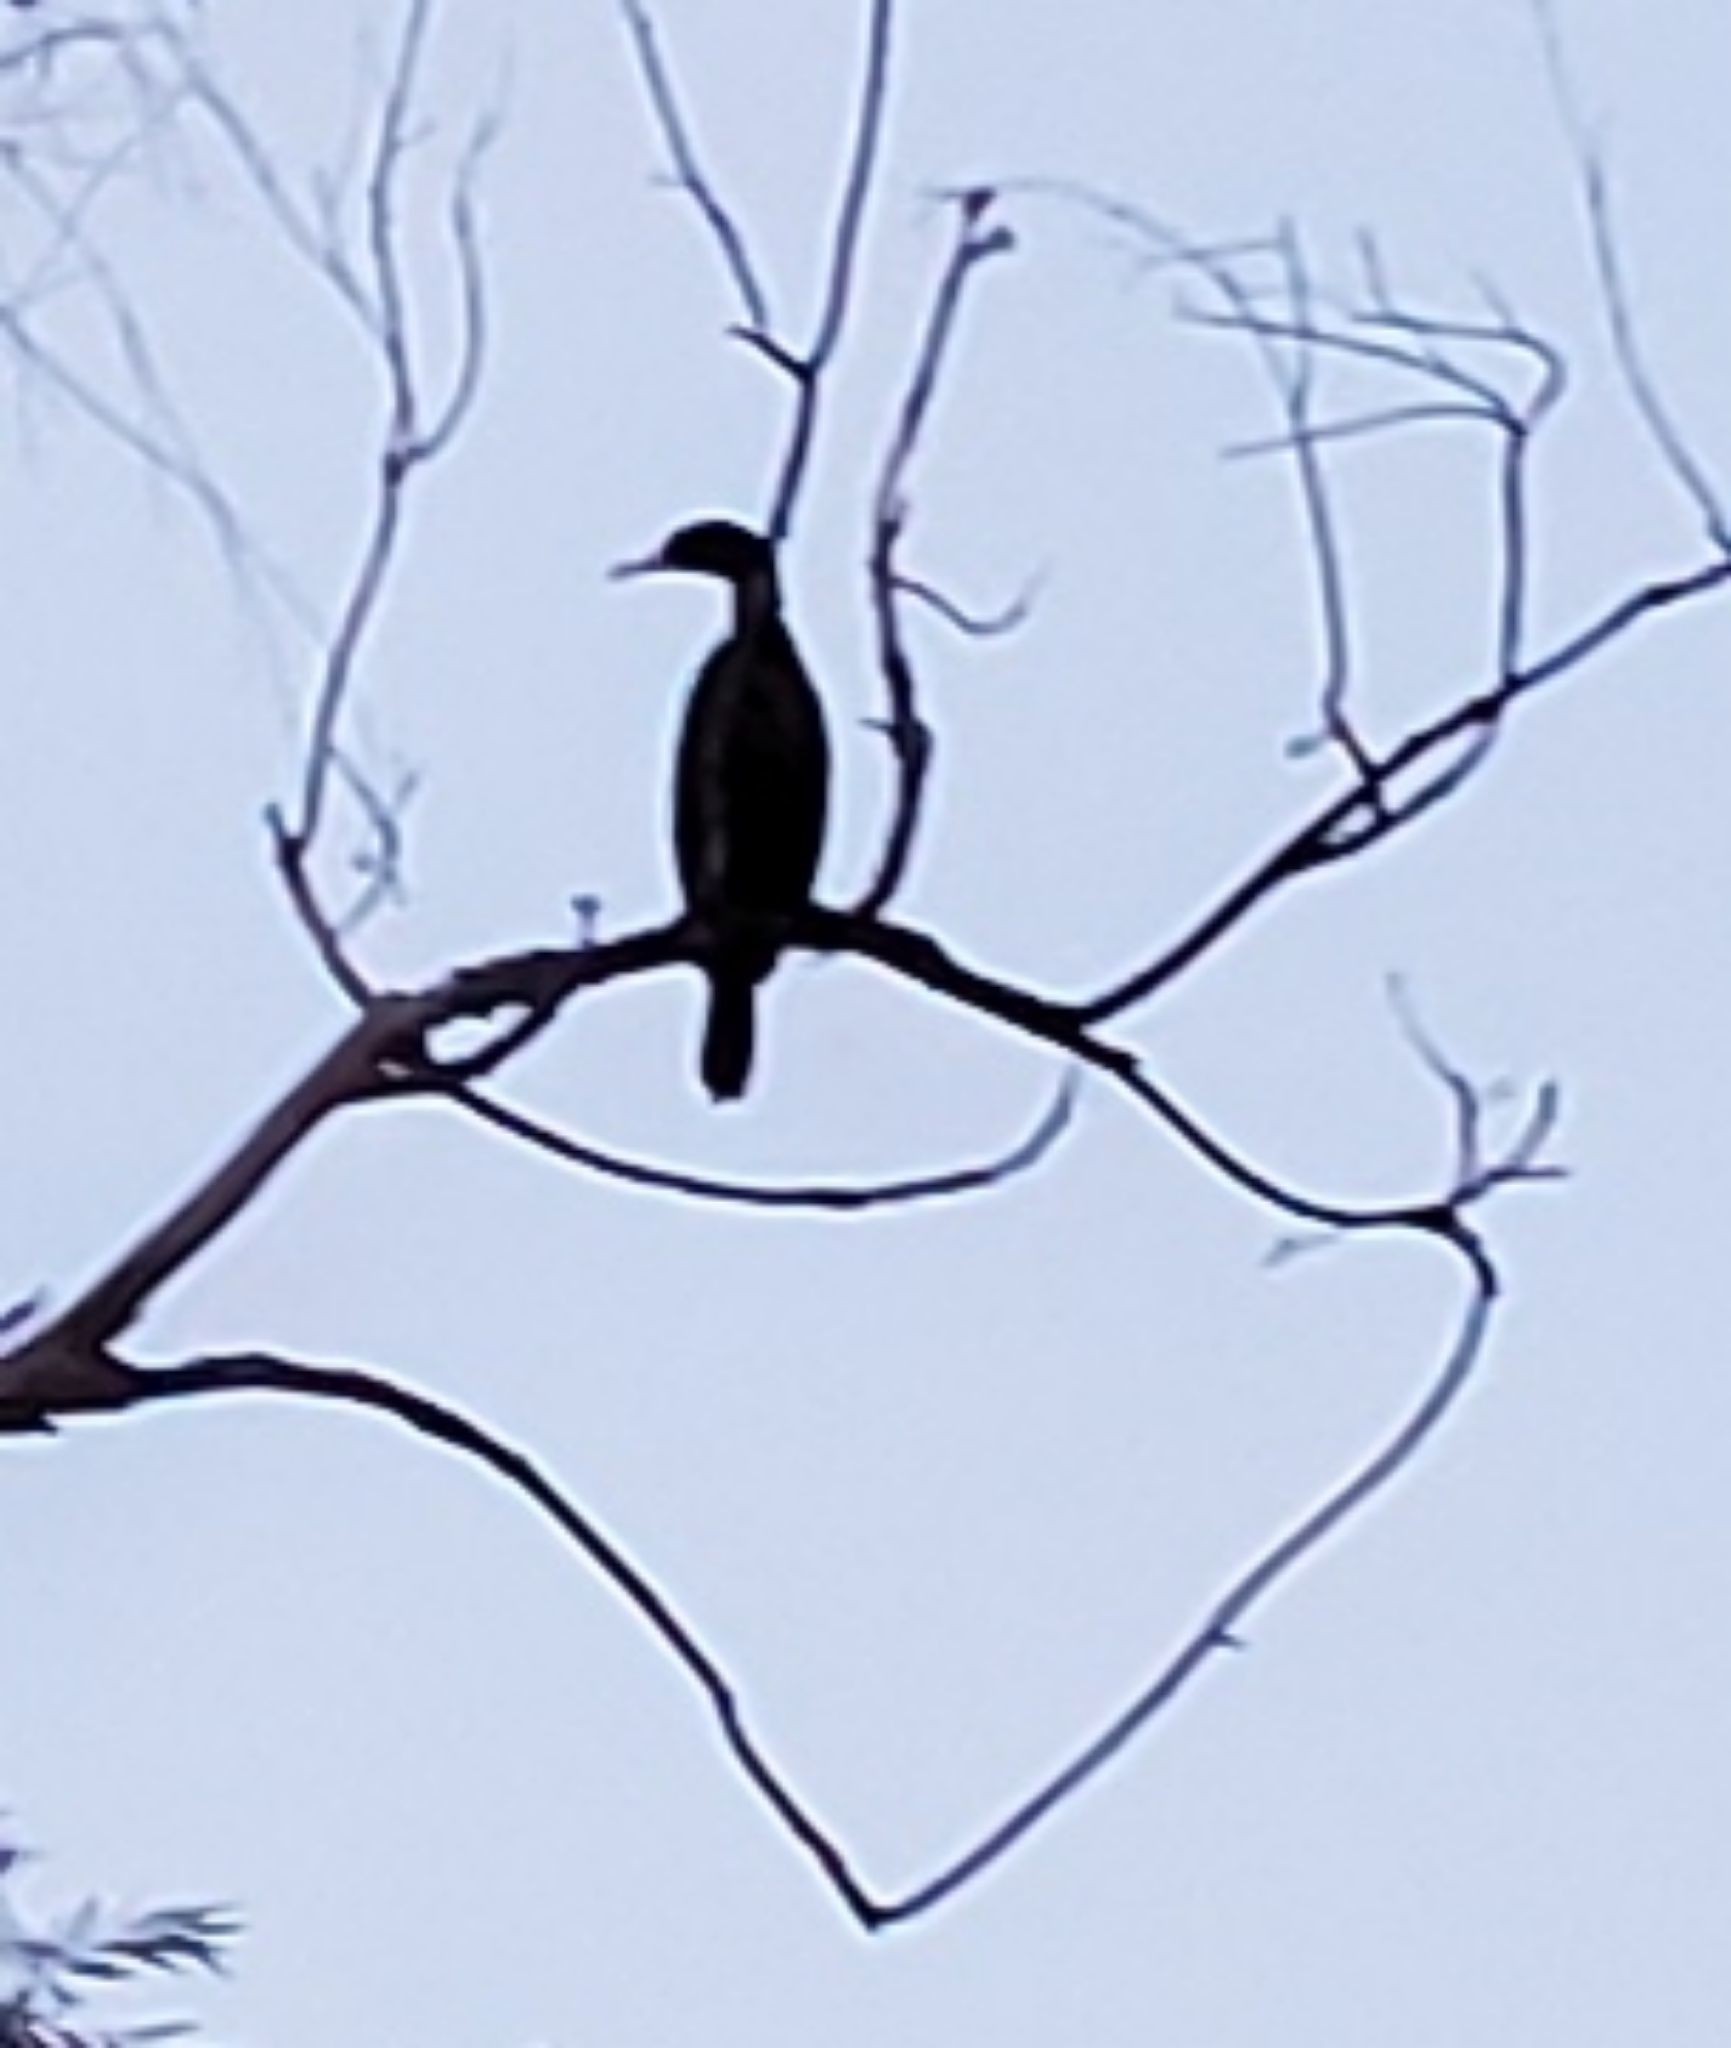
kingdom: Animalia
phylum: Chordata
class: Aves
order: Suliformes
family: Phalacrocoracidae
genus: Phalacrocorax
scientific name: Phalacrocorax auritus
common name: Double-crested cormorant
